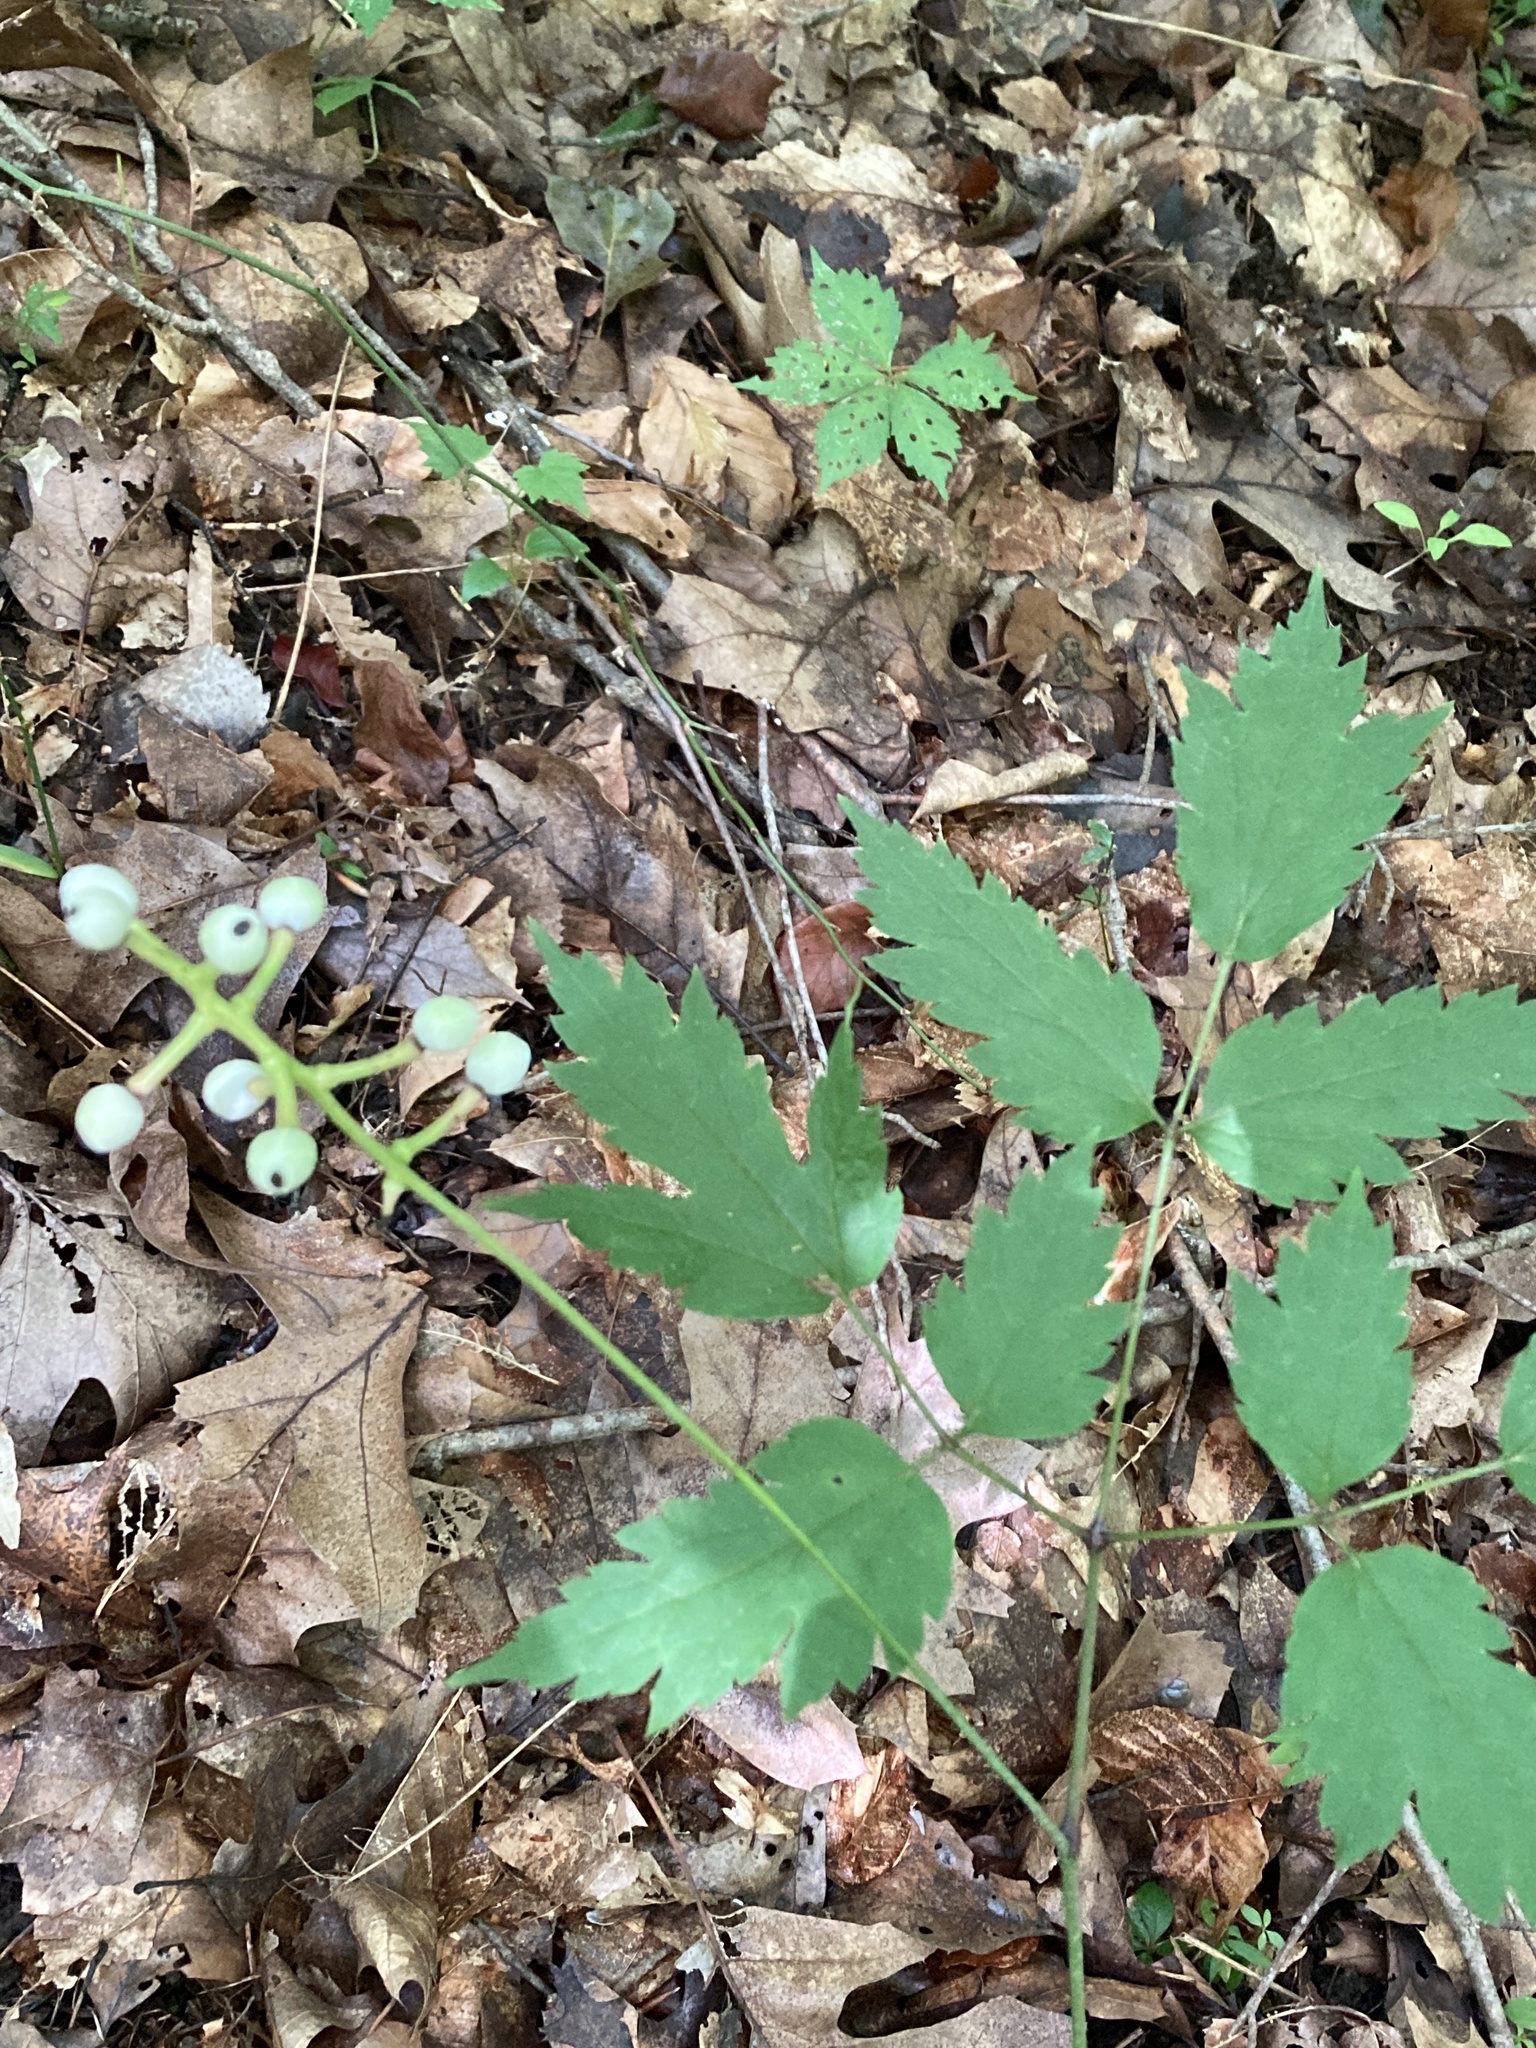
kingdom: Plantae
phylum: Tracheophyta
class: Magnoliopsida
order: Ranunculales
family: Ranunculaceae
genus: Actaea
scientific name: Actaea pachypoda
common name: Doll's-eyes
